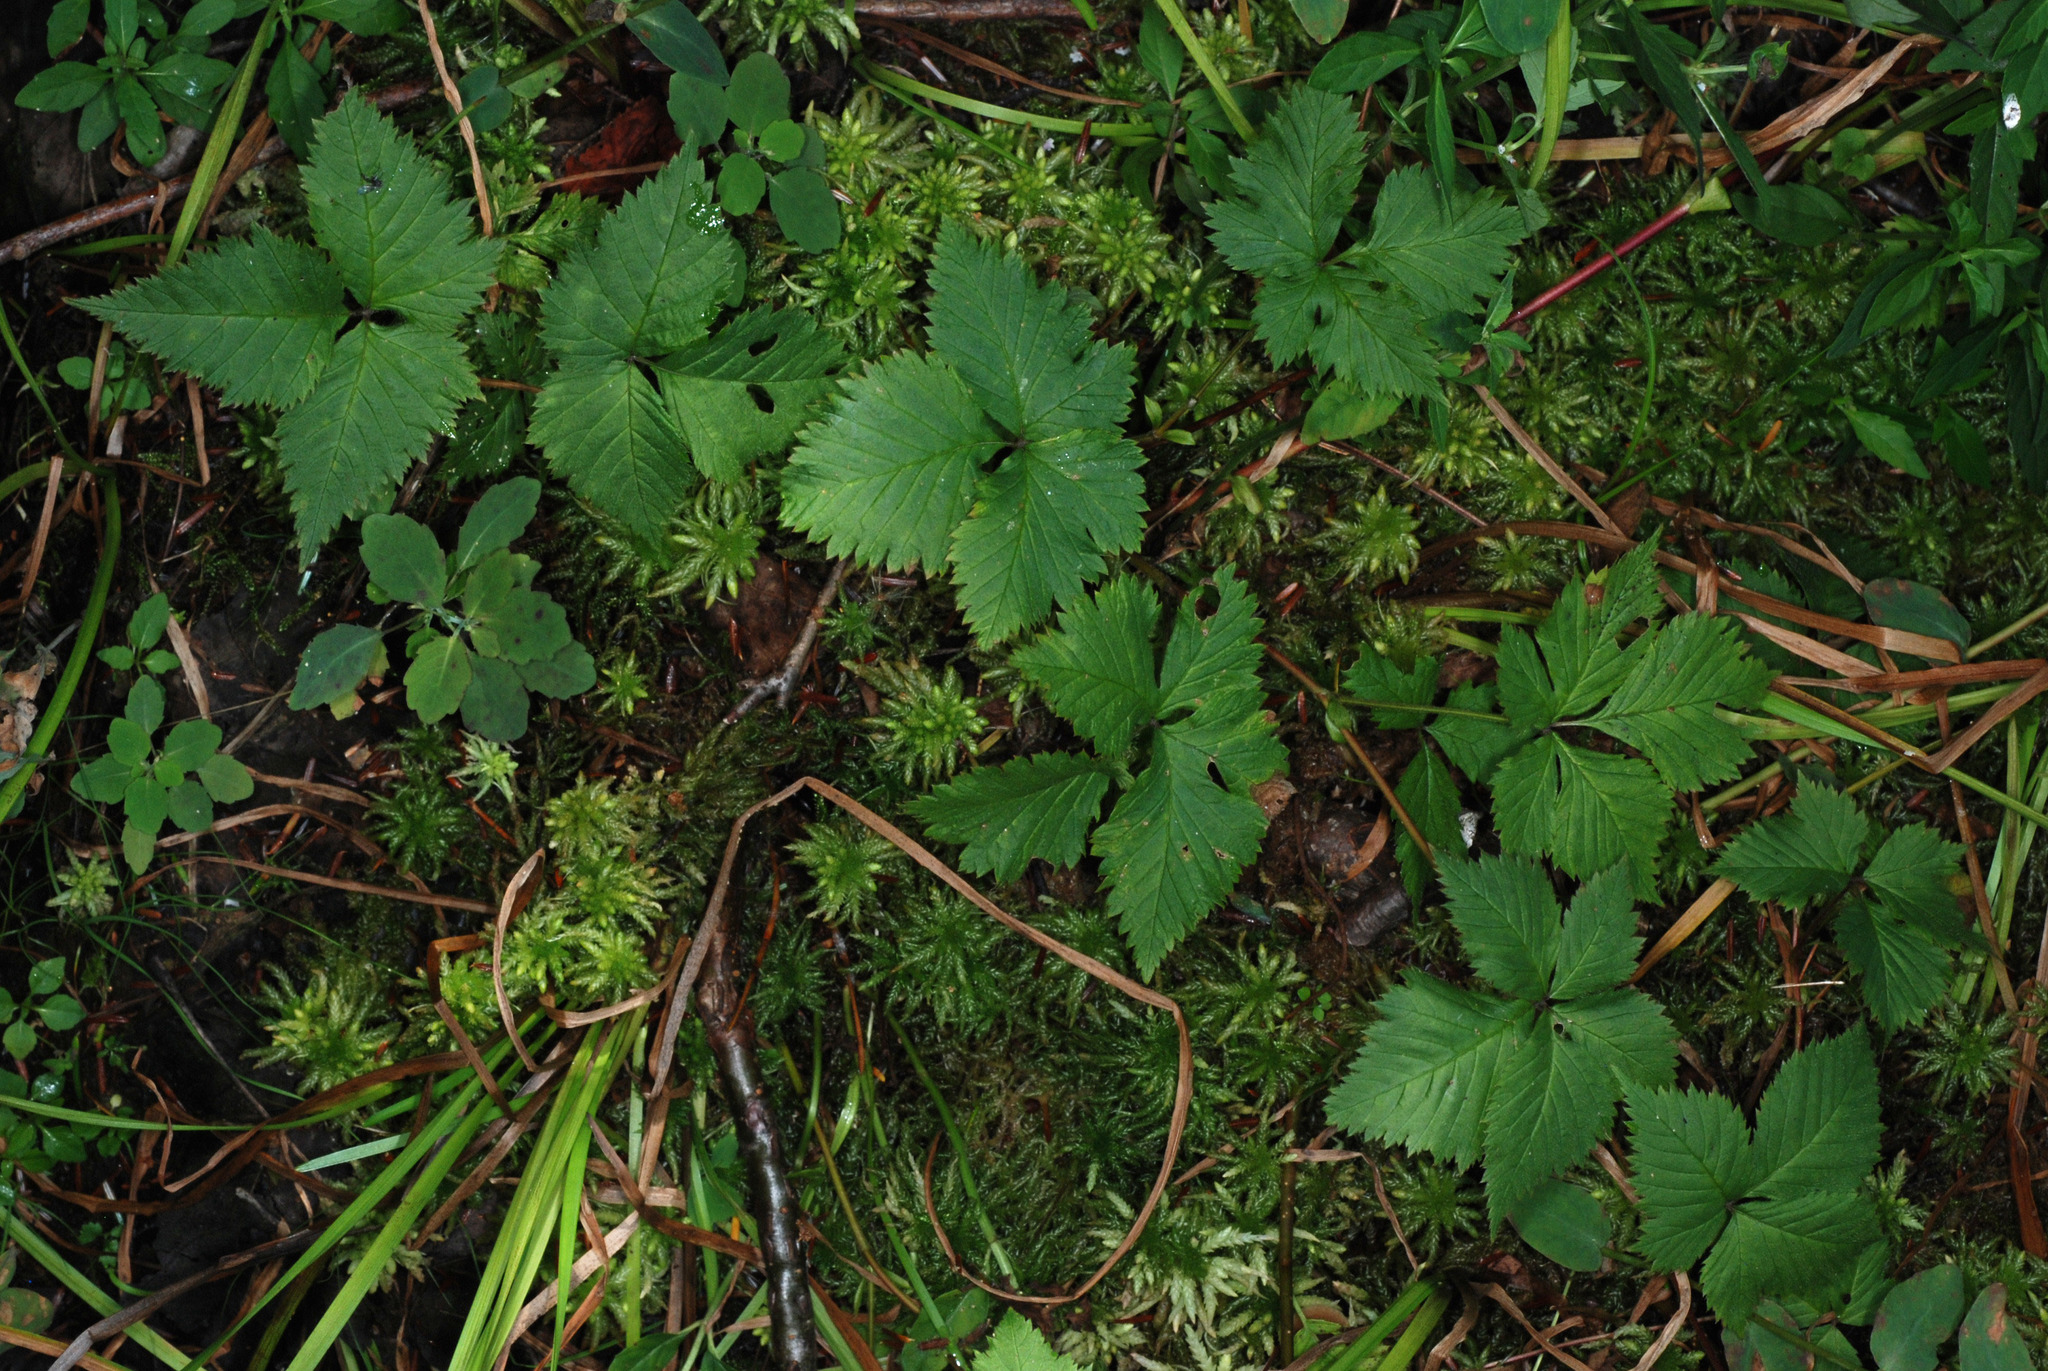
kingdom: Plantae
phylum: Tracheophyta
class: Magnoliopsida
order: Rosales
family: Rosaceae
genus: Rubus
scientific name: Rubus pubescens
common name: Dwarf raspberry
